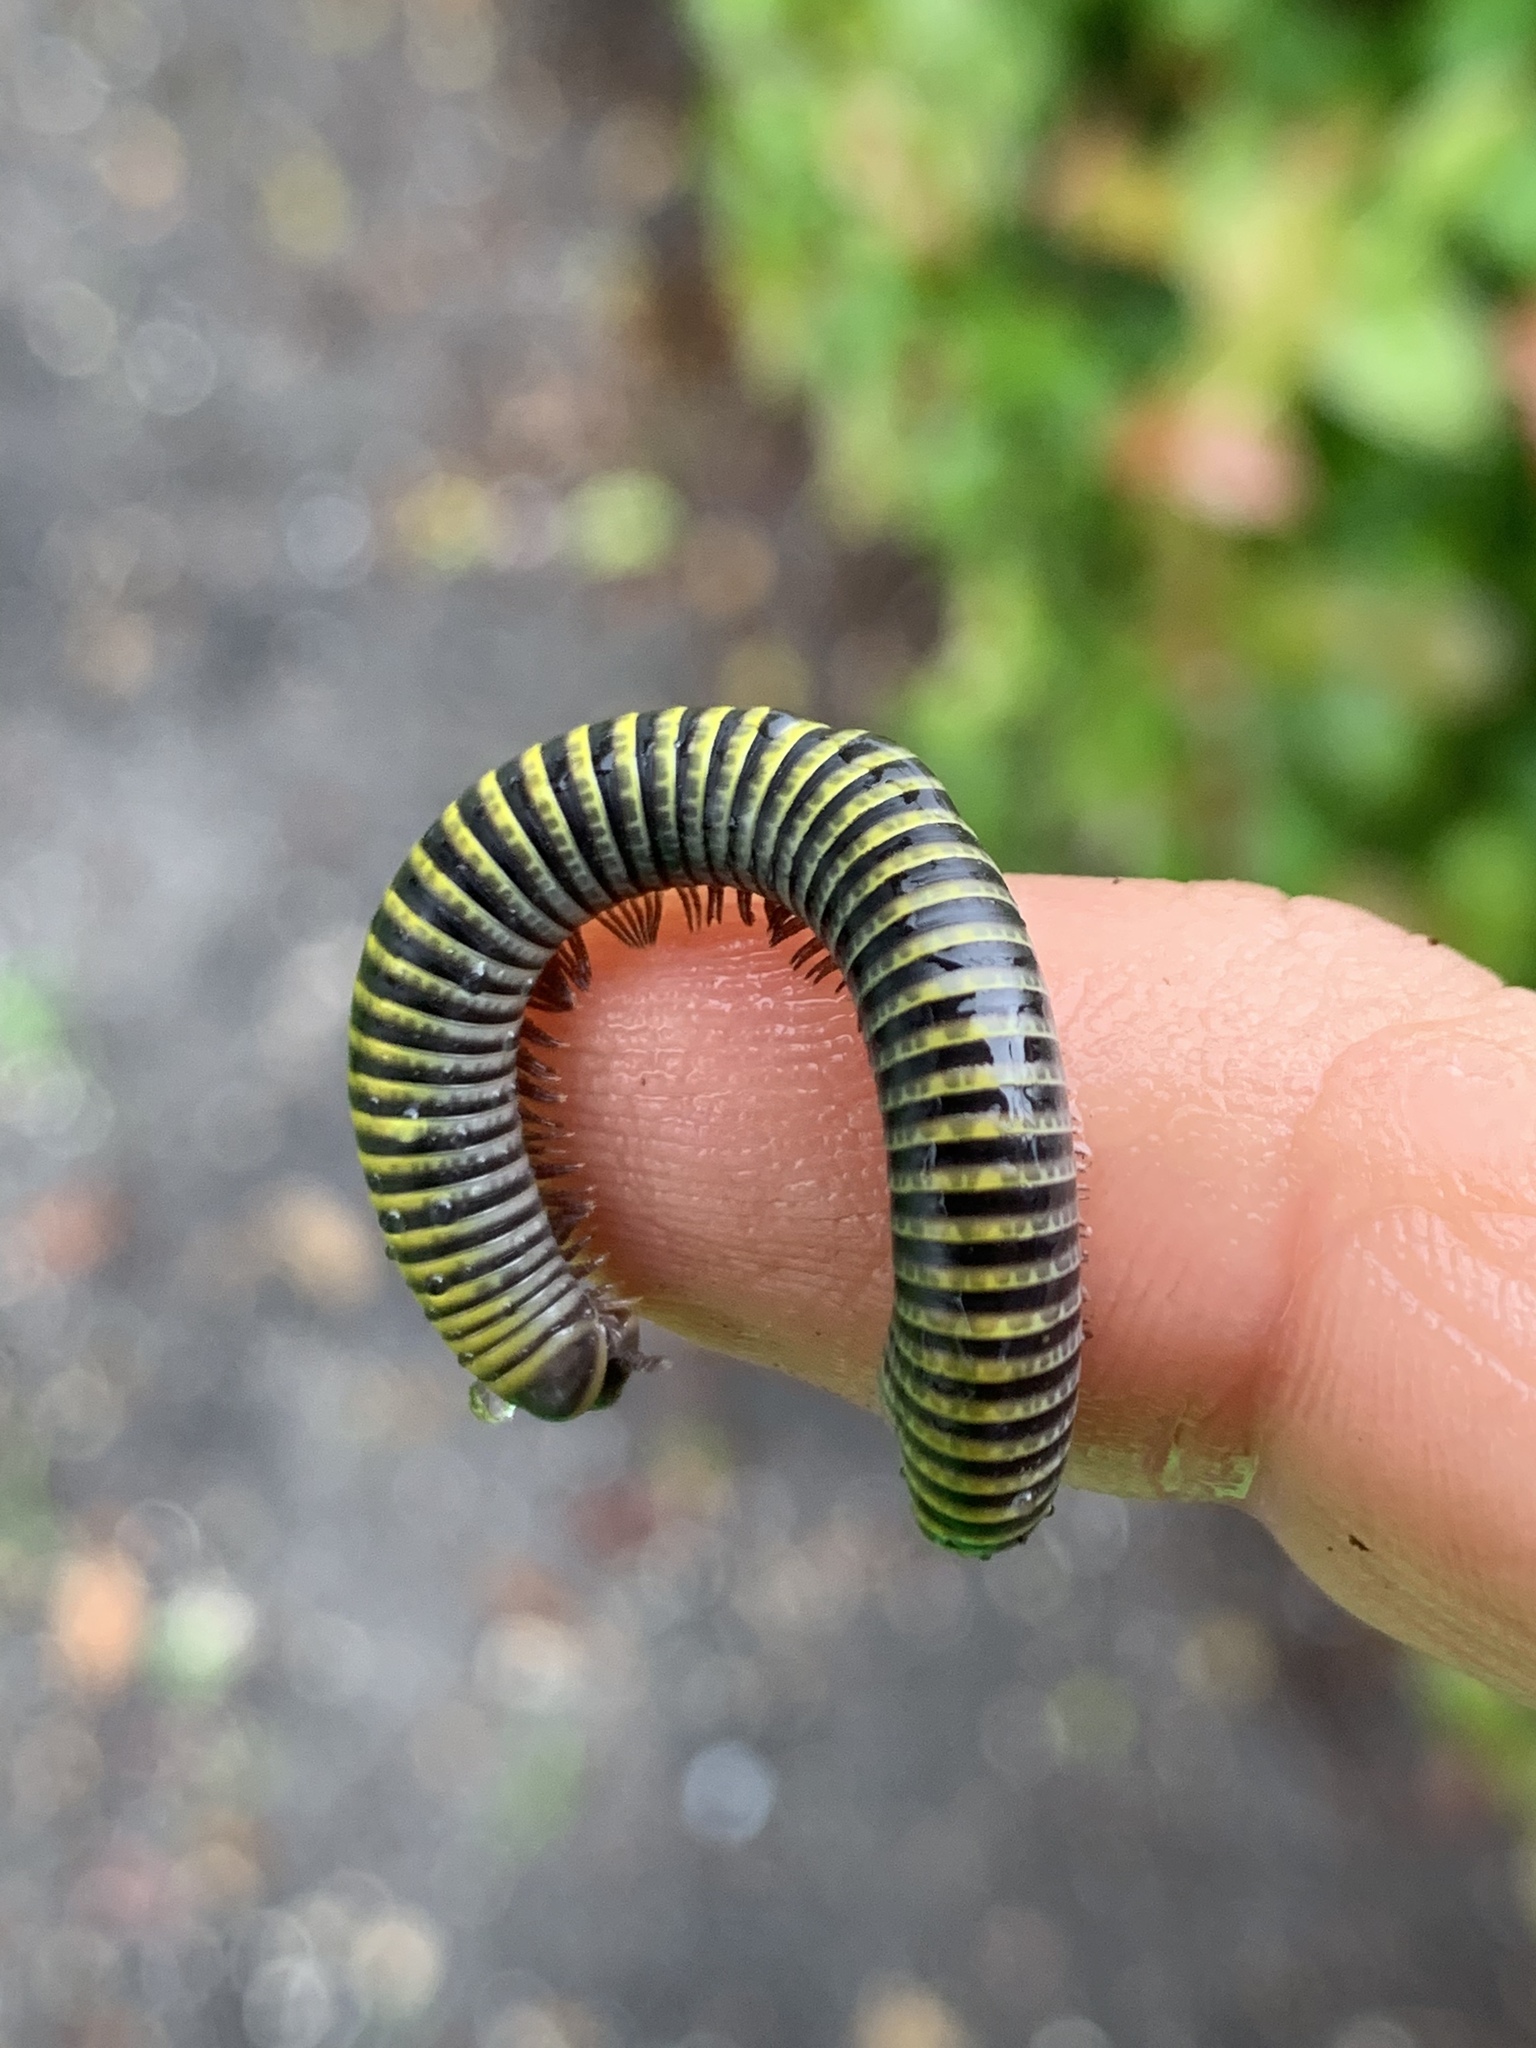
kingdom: Animalia
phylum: Arthropoda
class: Diplopoda
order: Spirobolida
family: Rhinocricidae
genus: Anadenobolus
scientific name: Anadenobolus monilicornis
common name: Caribbean millipede
